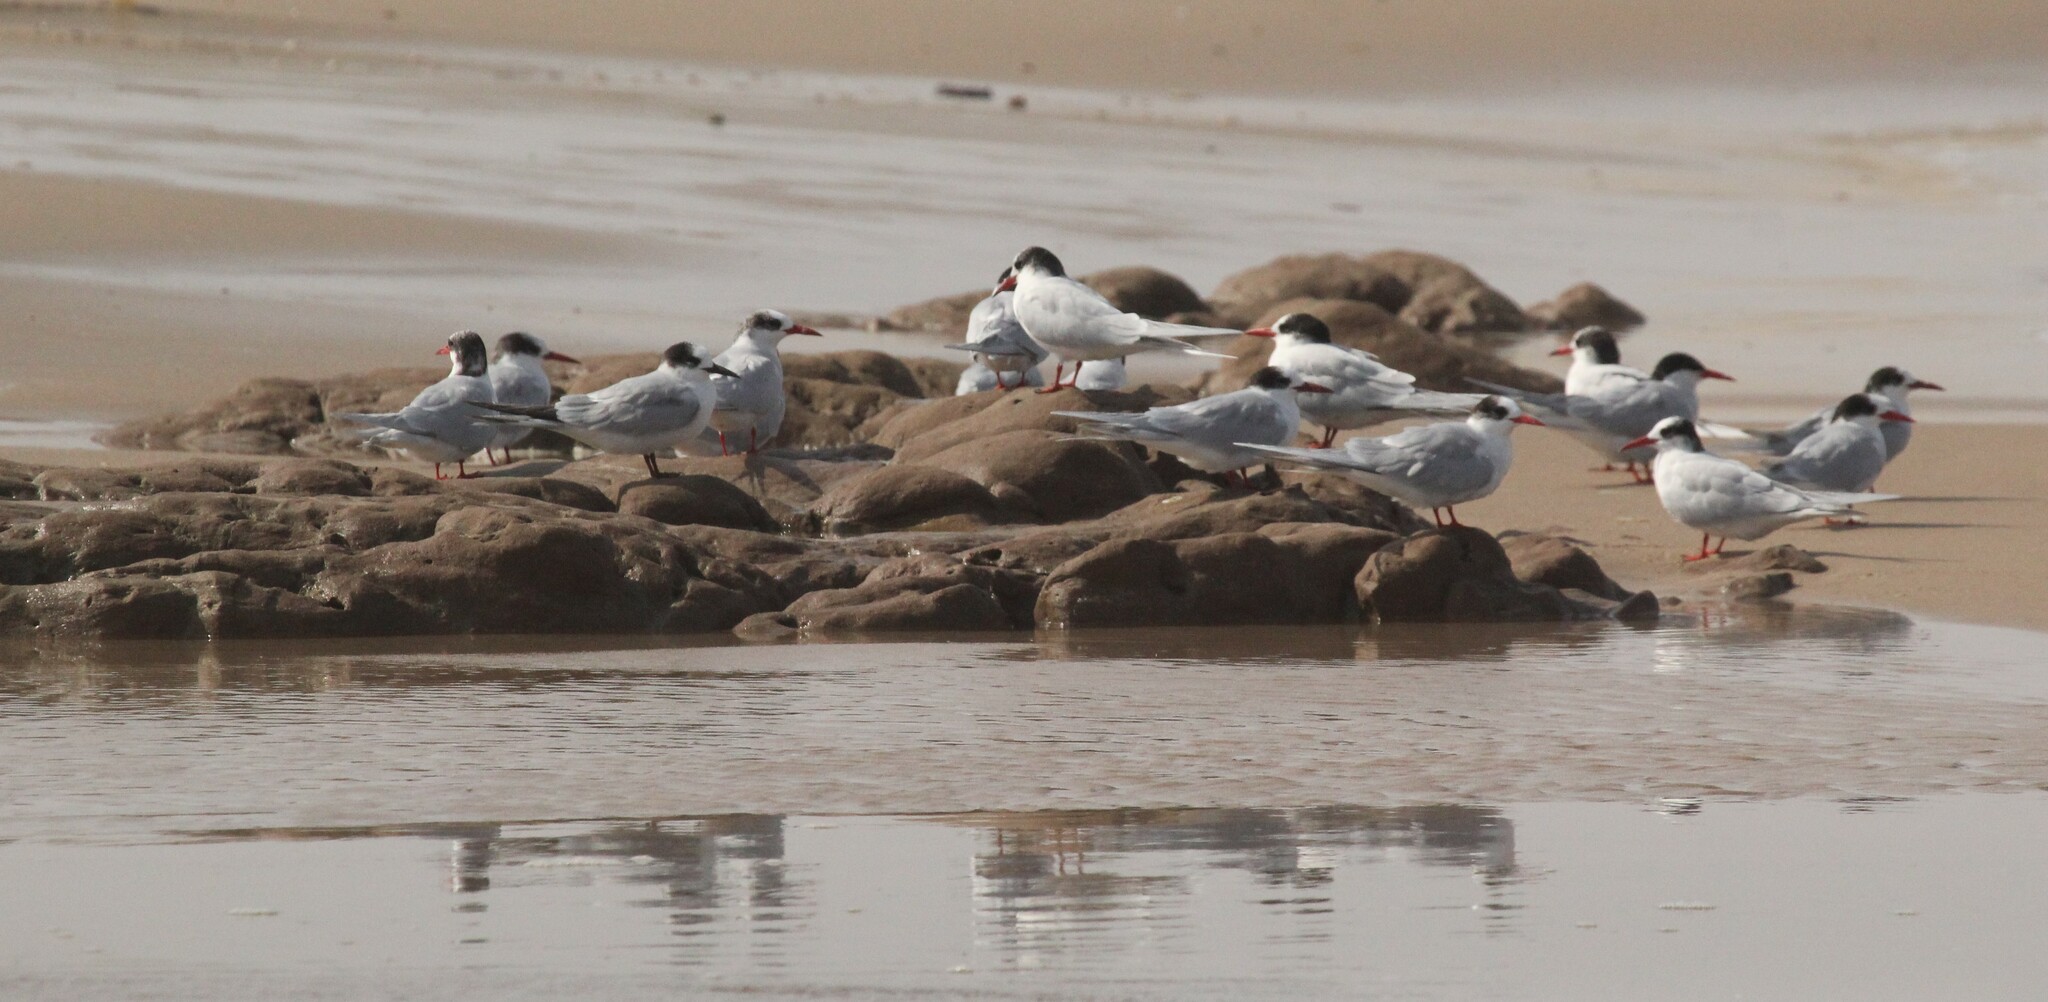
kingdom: Animalia
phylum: Chordata
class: Aves
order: Charadriiformes
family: Laridae
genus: Sterna
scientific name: Sterna hirundinacea
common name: South american tern
